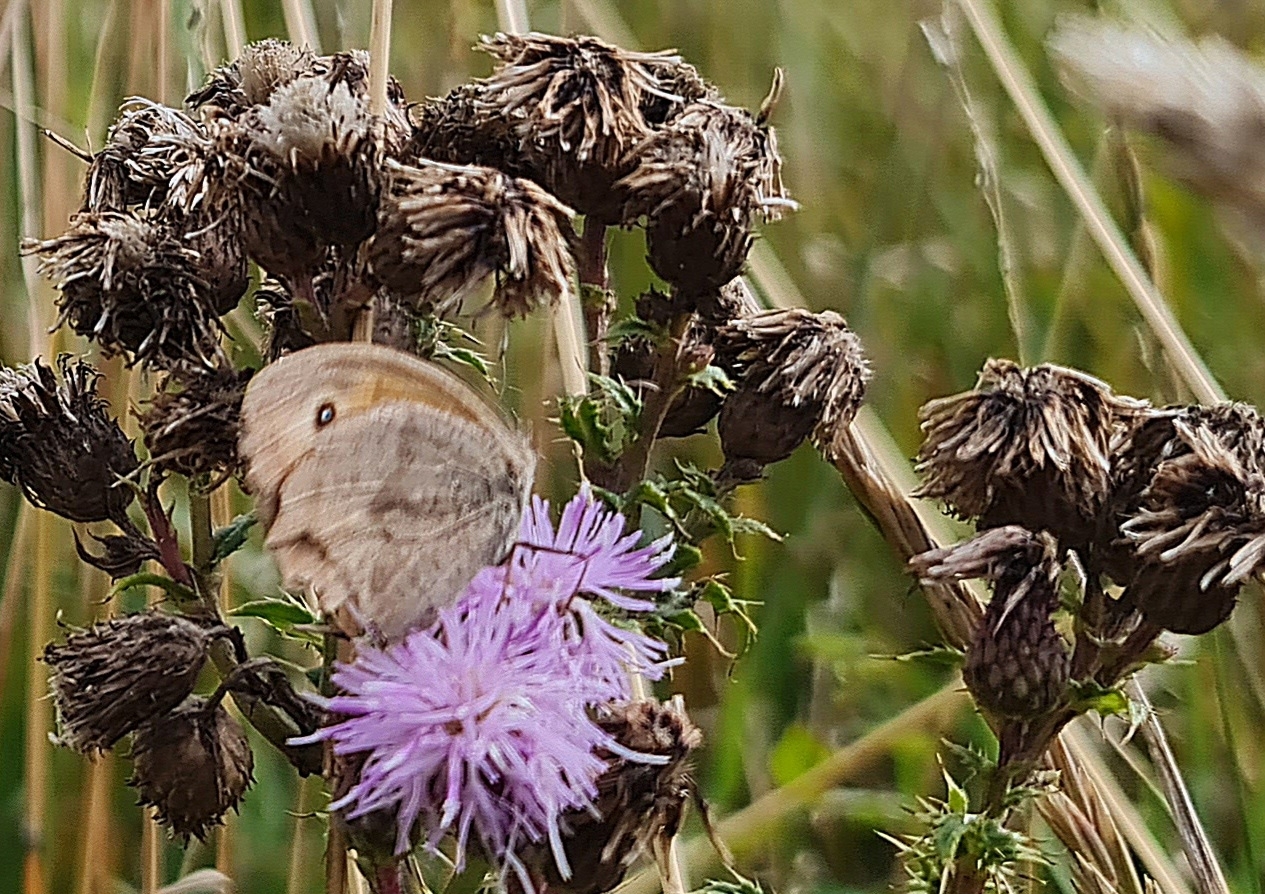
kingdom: Animalia
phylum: Arthropoda
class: Insecta
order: Lepidoptera
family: Nymphalidae
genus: Maniola
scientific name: Maniola jurtina
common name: Meadow brown
